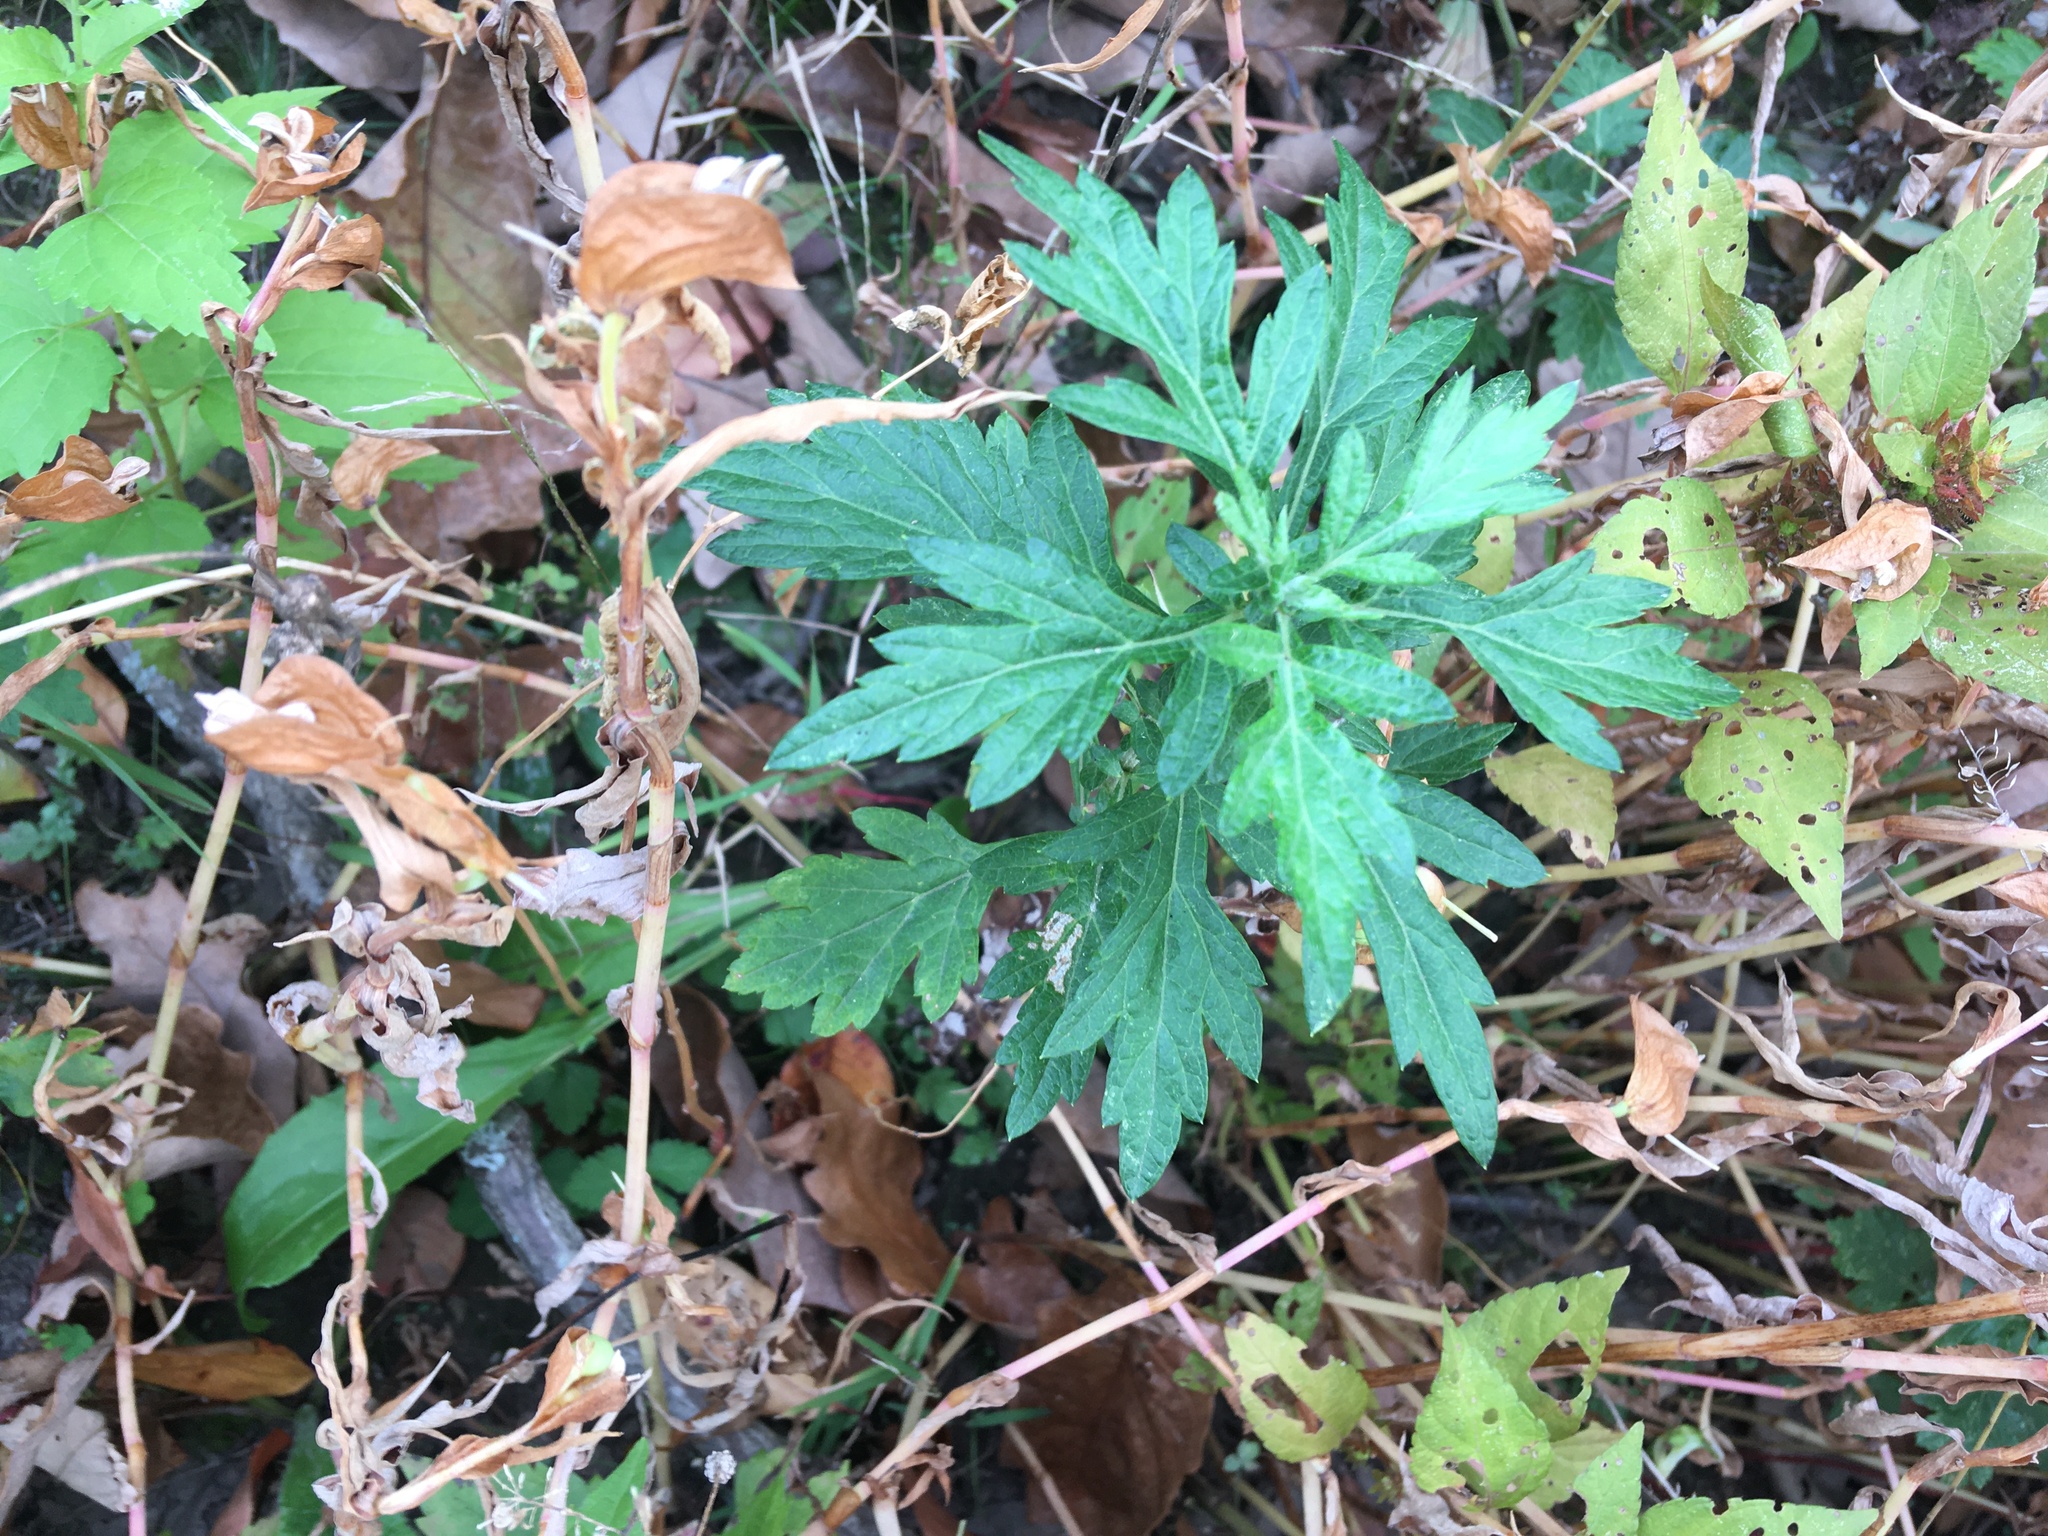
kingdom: Plantae
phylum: Tracheophyta
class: Magnoliopsida
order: Asterales
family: Asteraceae
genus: Artemisia
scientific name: Artemisia vulgaris
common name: Mugwort
